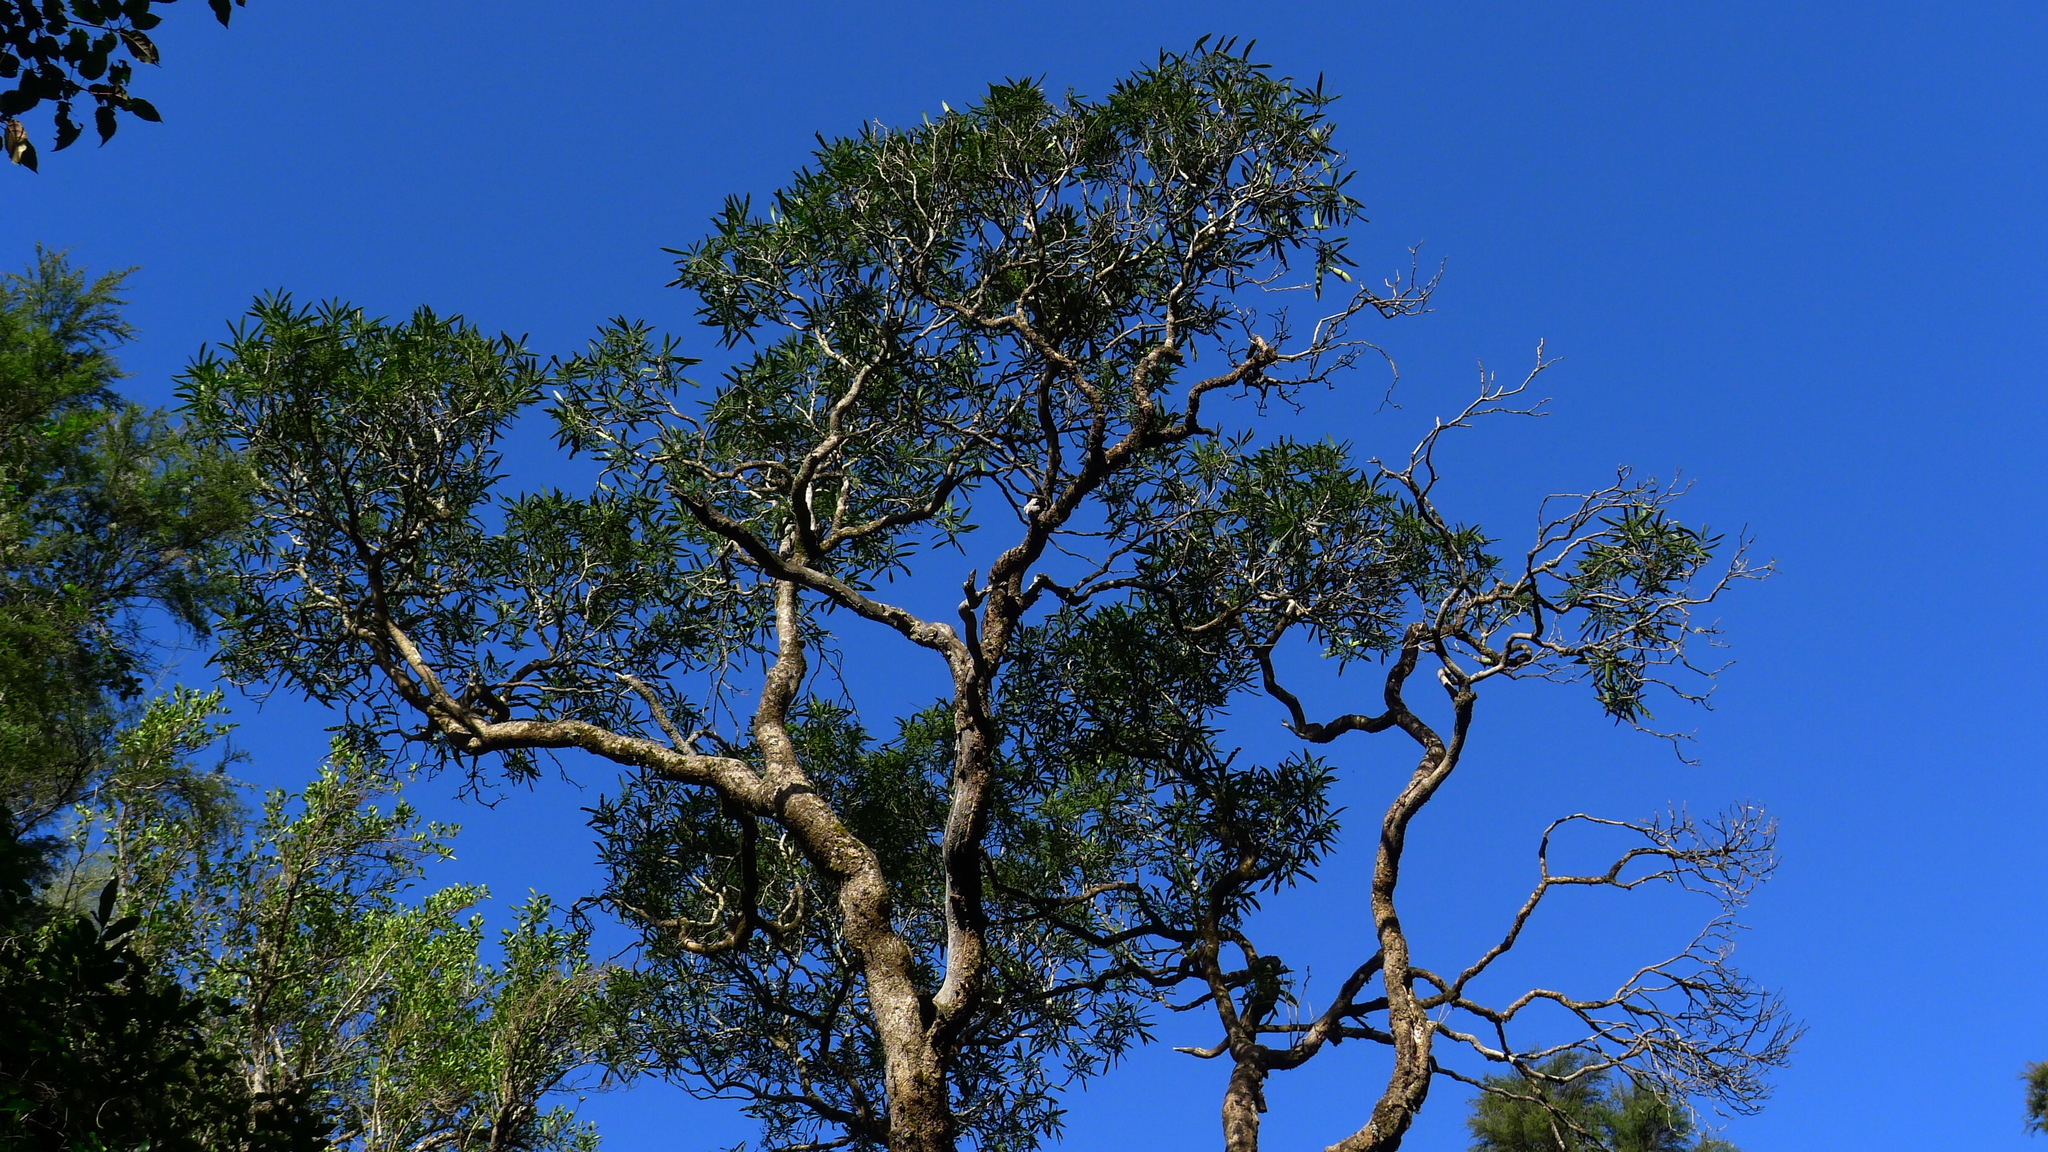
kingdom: Plantae
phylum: Tracheophyta
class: Magnoliopsida
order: Apiales
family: Araliaceae
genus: Pseudopanax
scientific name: Pseudopanax crassifolius
